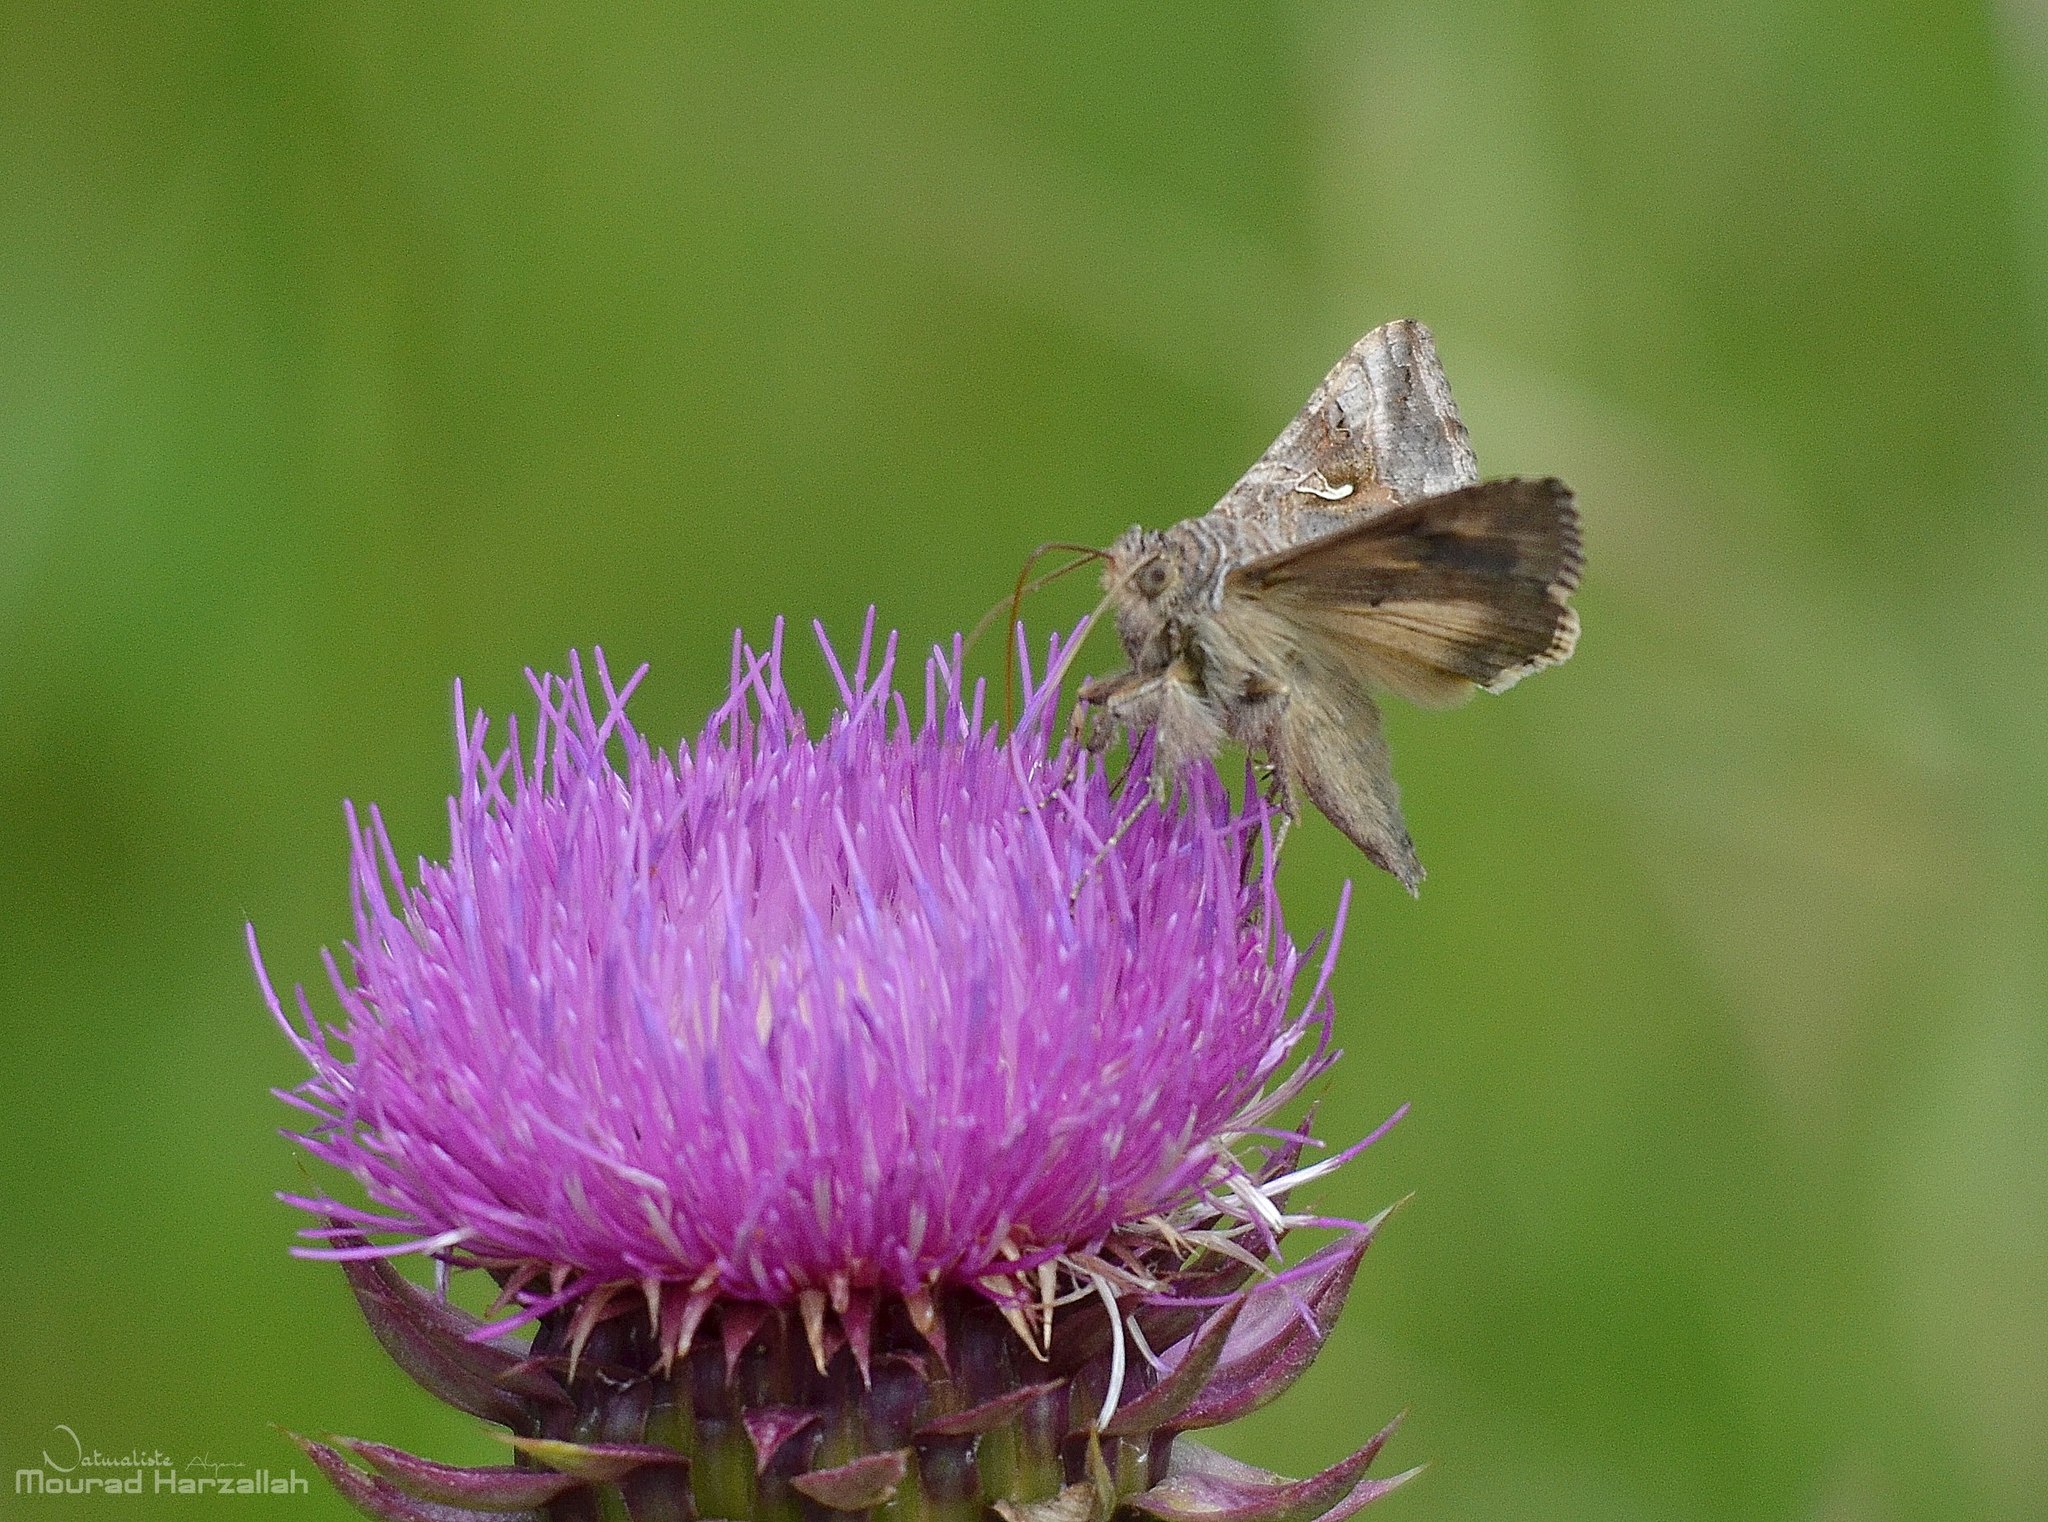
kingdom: Animalia
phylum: Arthropoda
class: Insecta
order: Lepidoptera
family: Noctuidae
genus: Autographa
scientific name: Autographa gamma
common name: Silver y
